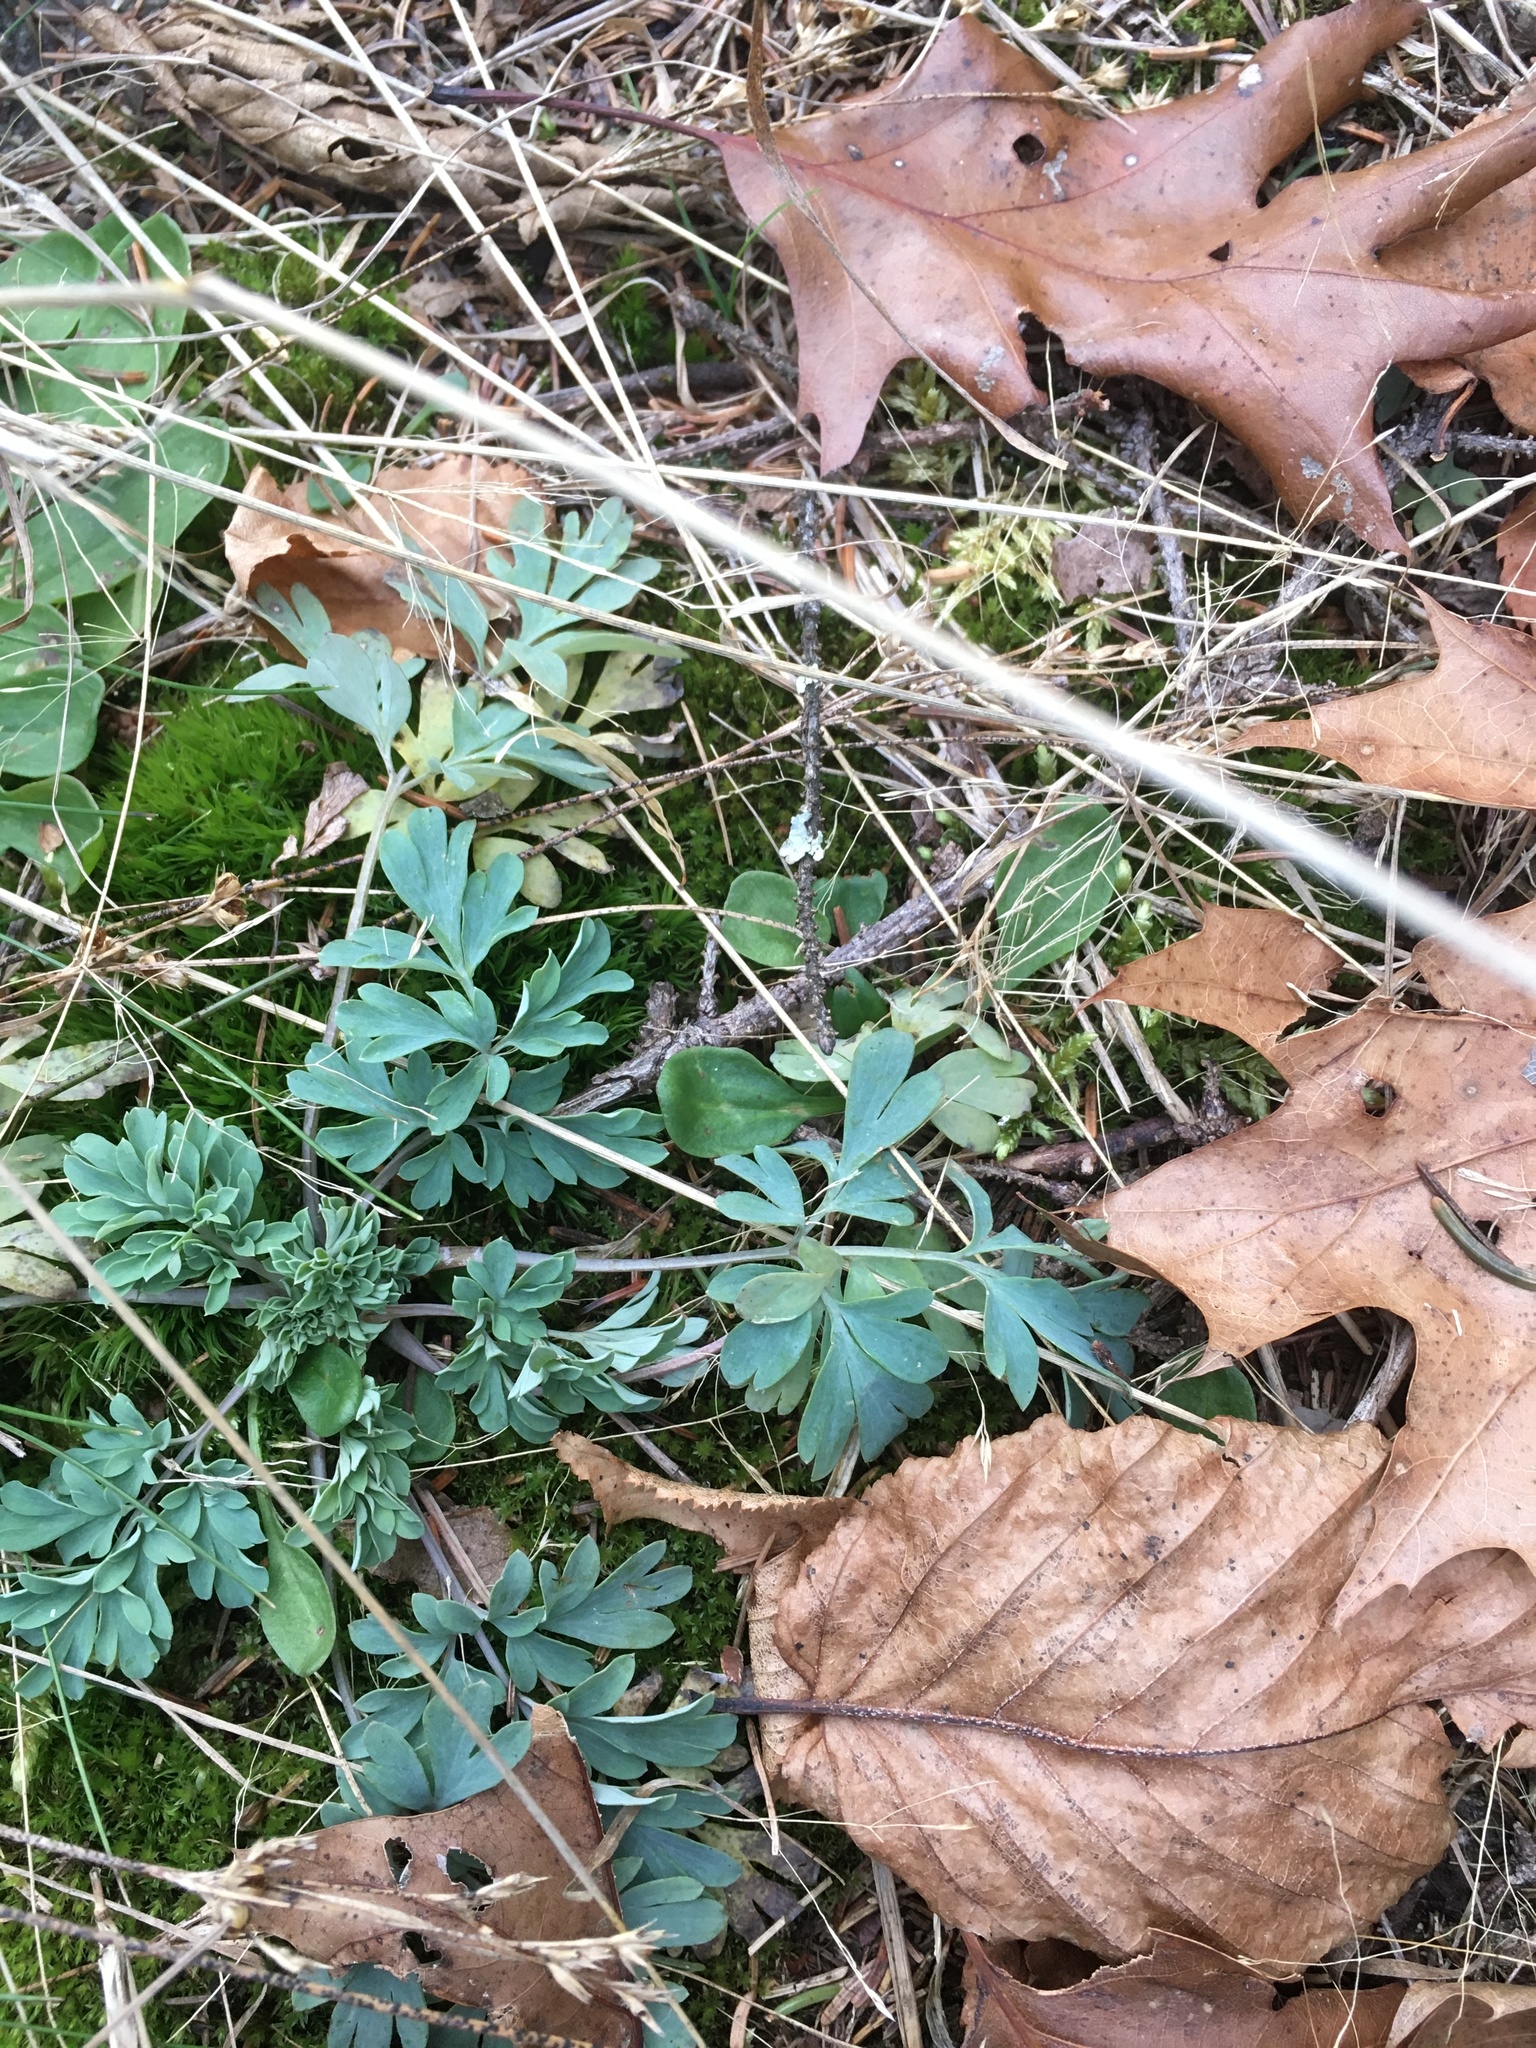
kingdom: Plantae
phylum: Tracheophyta
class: Magnoliopsida
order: Ranunculales
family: Papaveraceae
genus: Capnoides
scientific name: Capnoides sempervirens
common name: Rock harlequin
